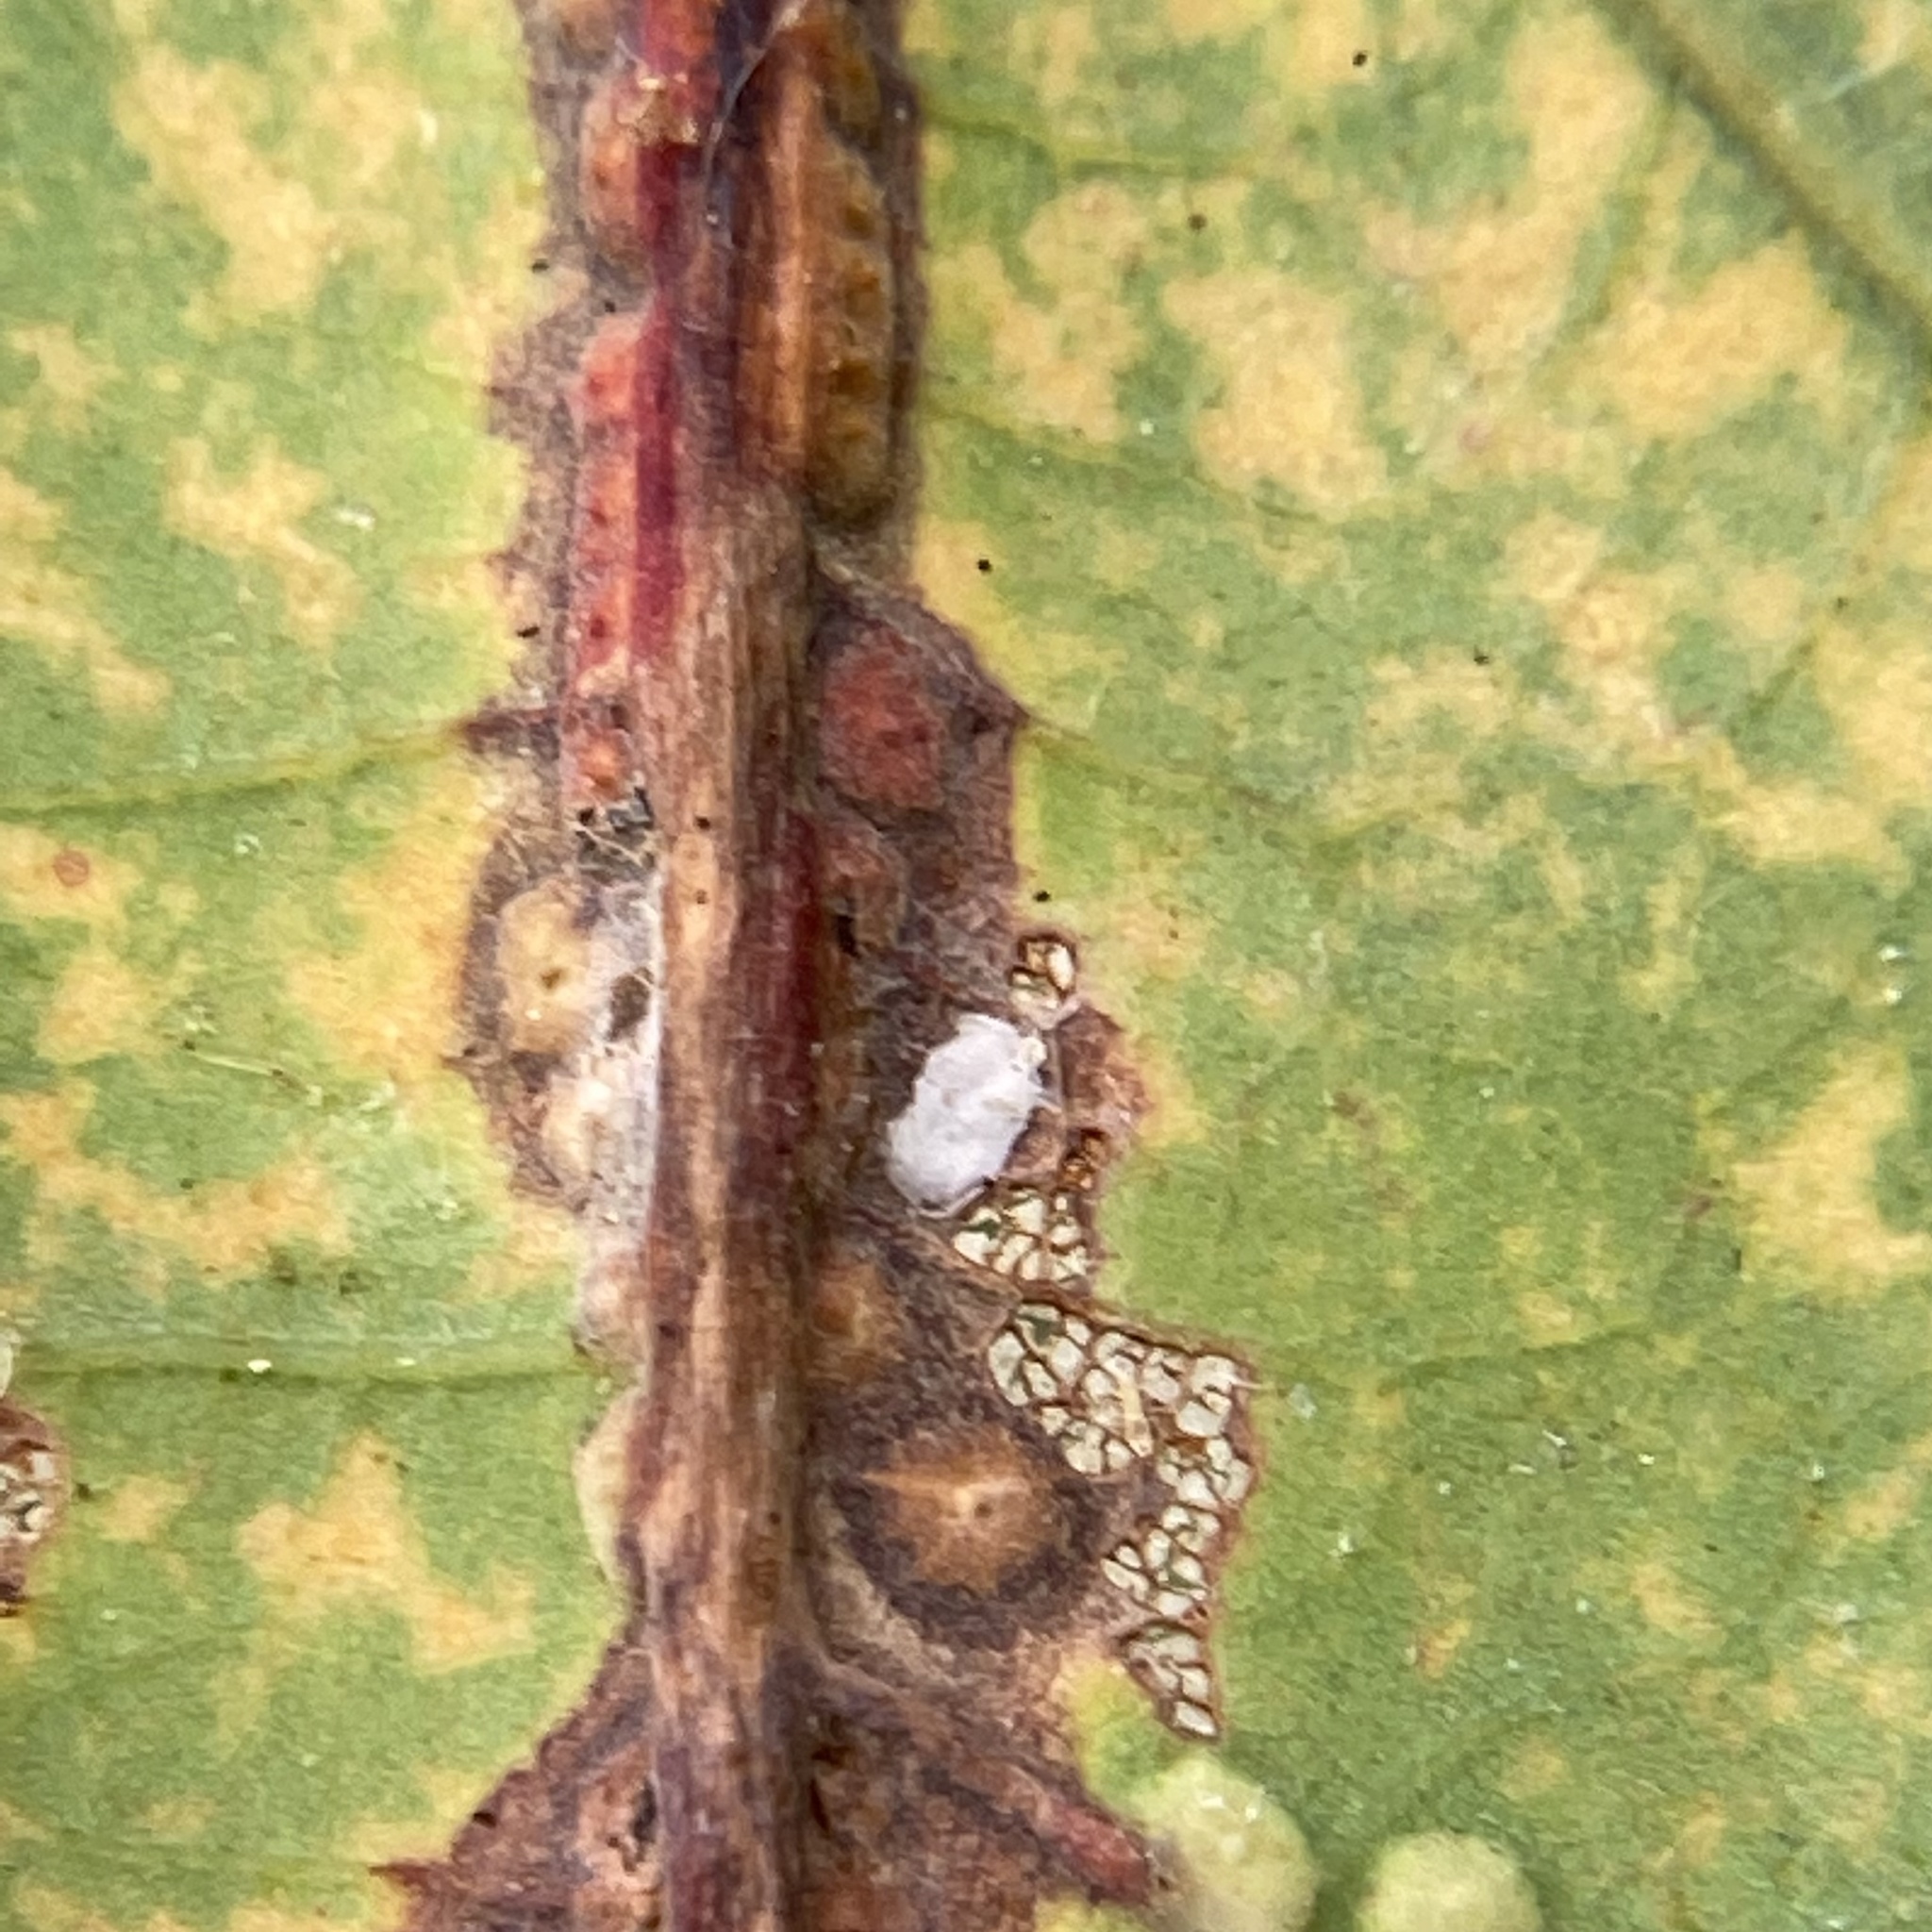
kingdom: Animalia
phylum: Arthropoda
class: Insecta
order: Hymenoptera
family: Cynipidae
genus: Neuroterus
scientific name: Neuroterus niger
